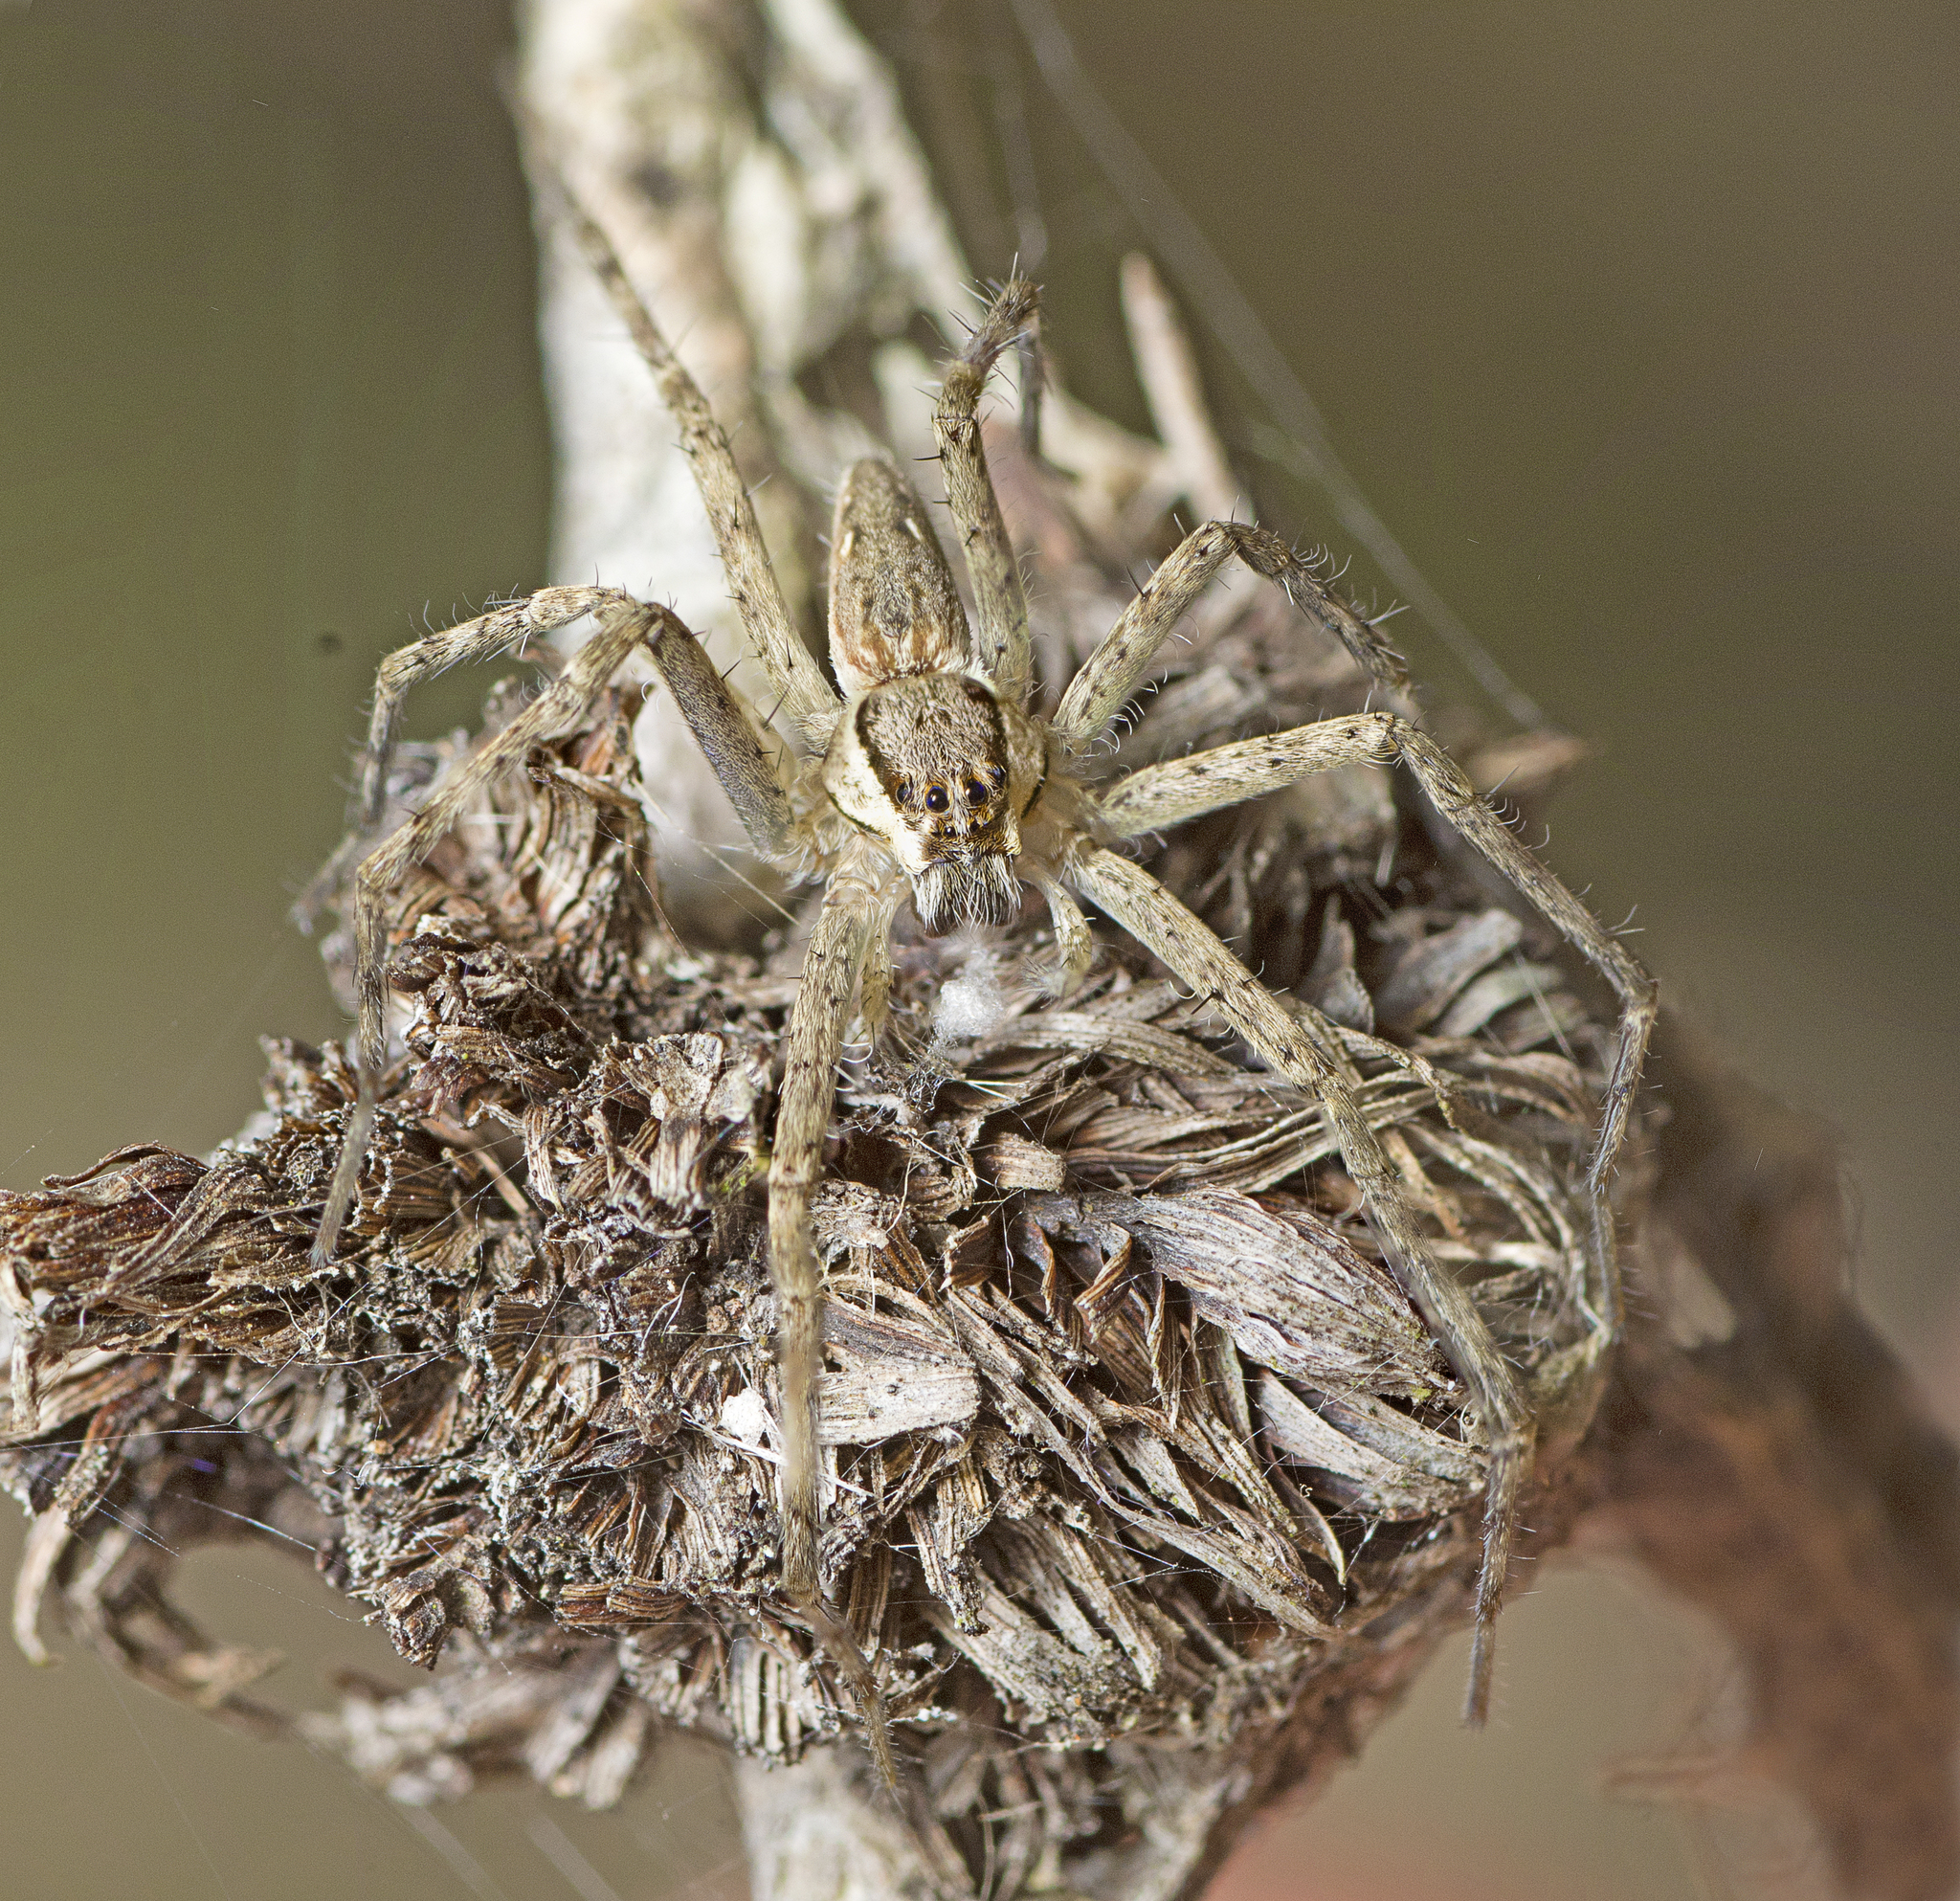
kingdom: Animalia
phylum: Arthropoda
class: Arachnida
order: Araneae
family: Pisauridae
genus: Megadolomedes
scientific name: Megadolomedes trux
